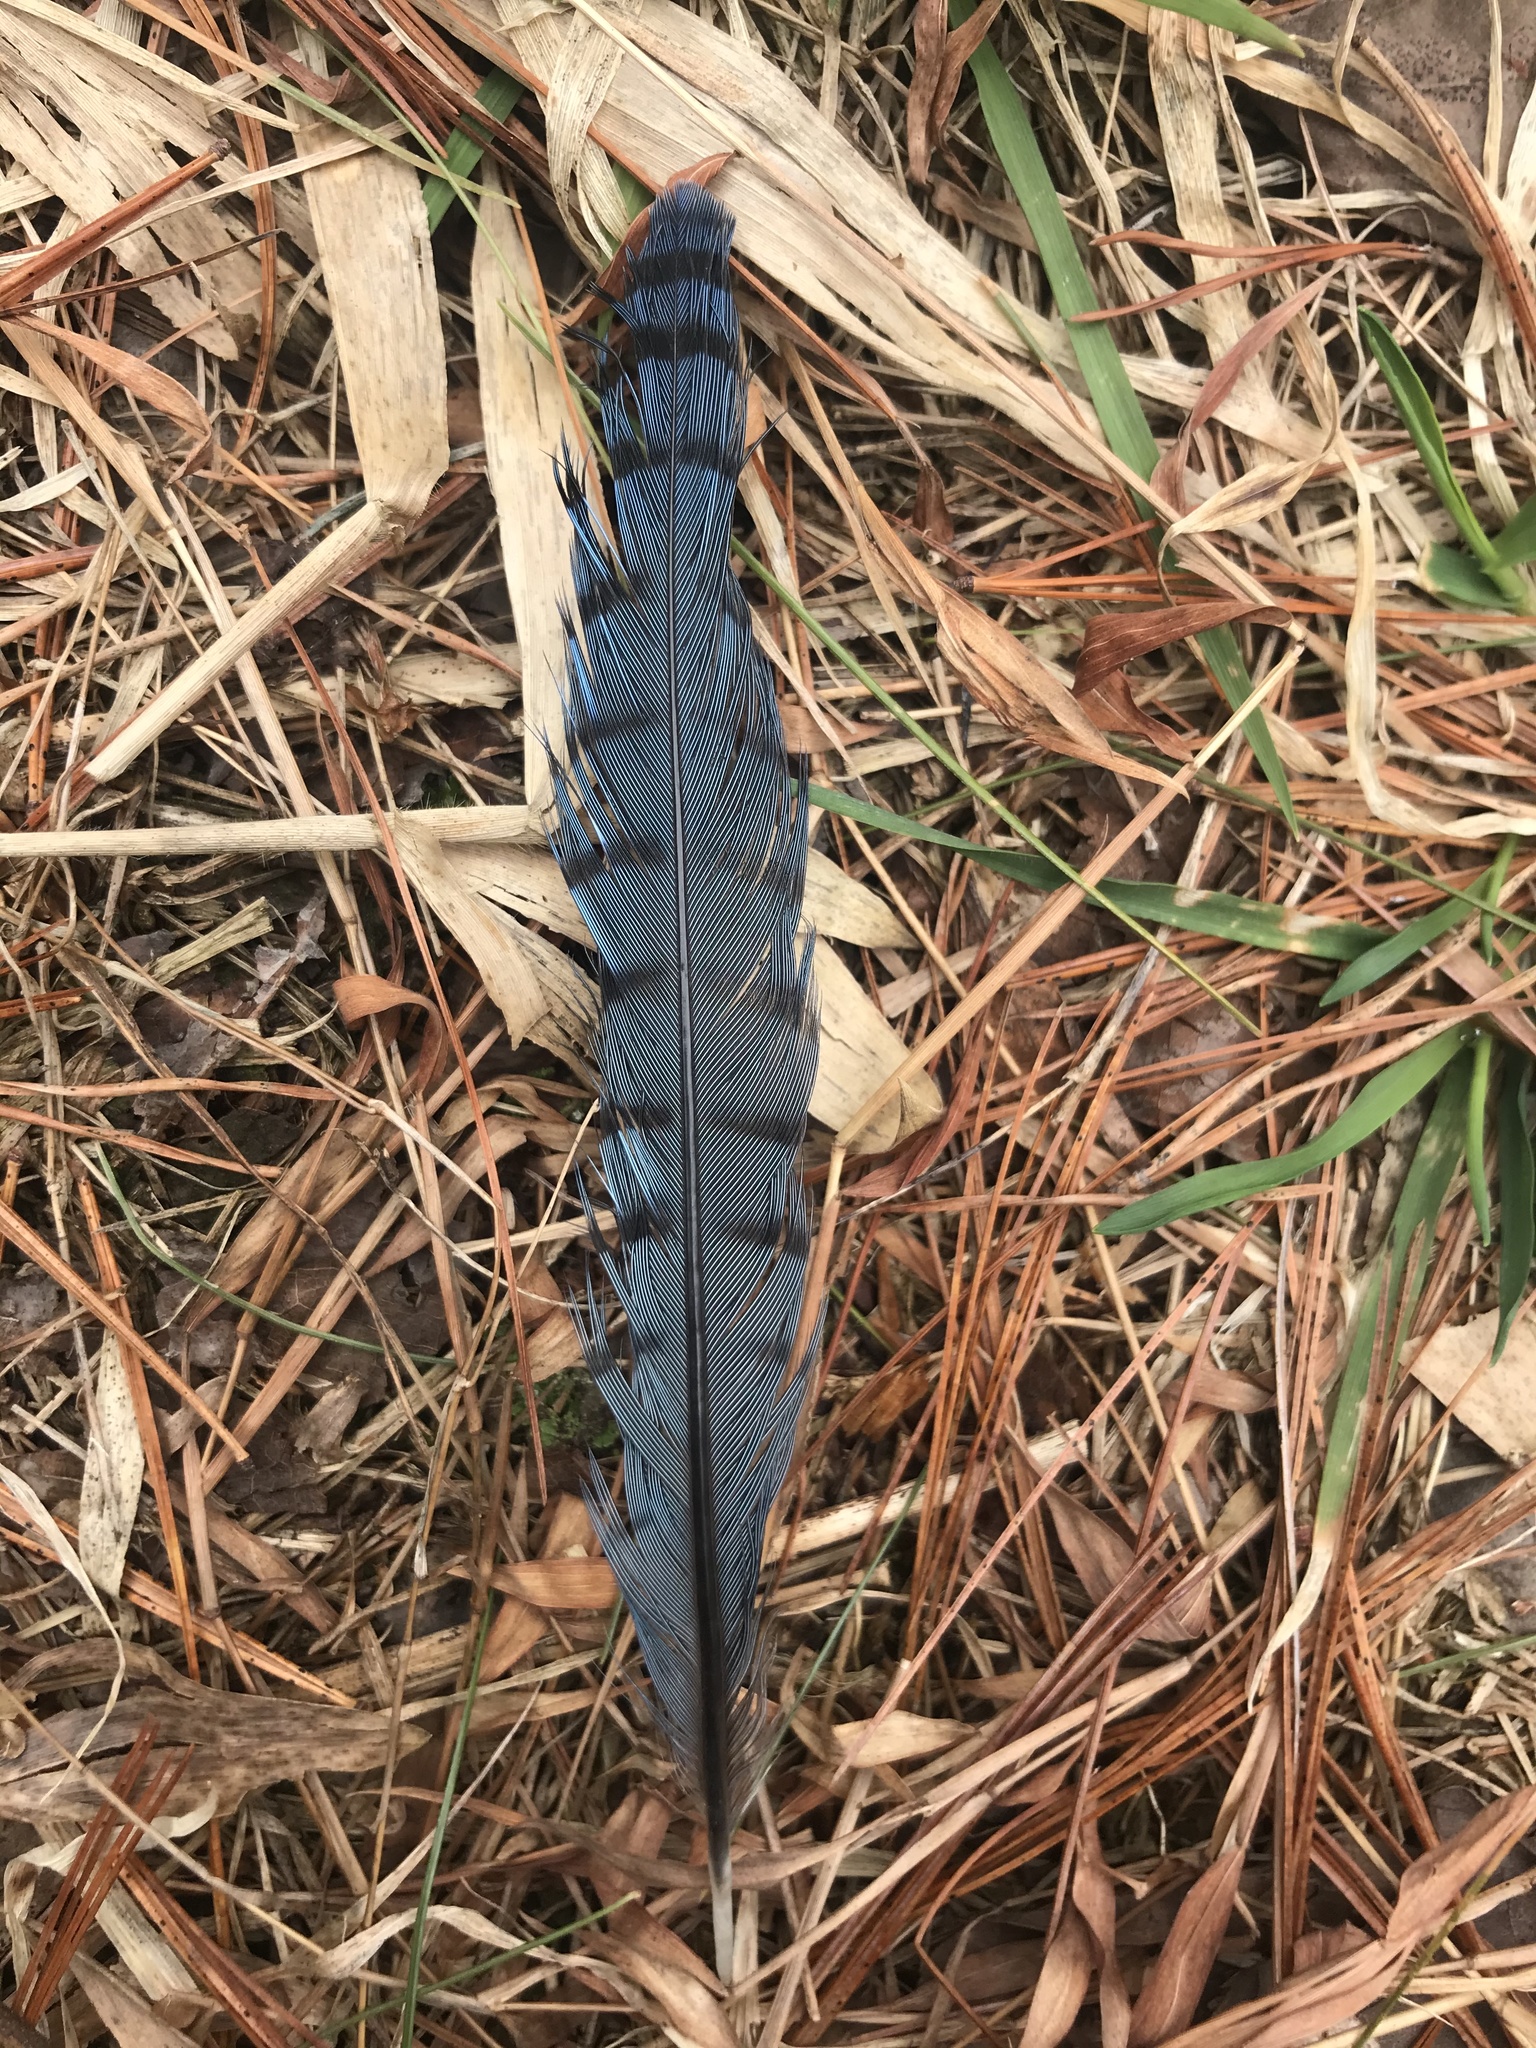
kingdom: Animalia
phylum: Chordata
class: Aves
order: Passeriformes
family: Corvidae
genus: Cyanocitta
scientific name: Cyanocitta cristata
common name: Blue jay
